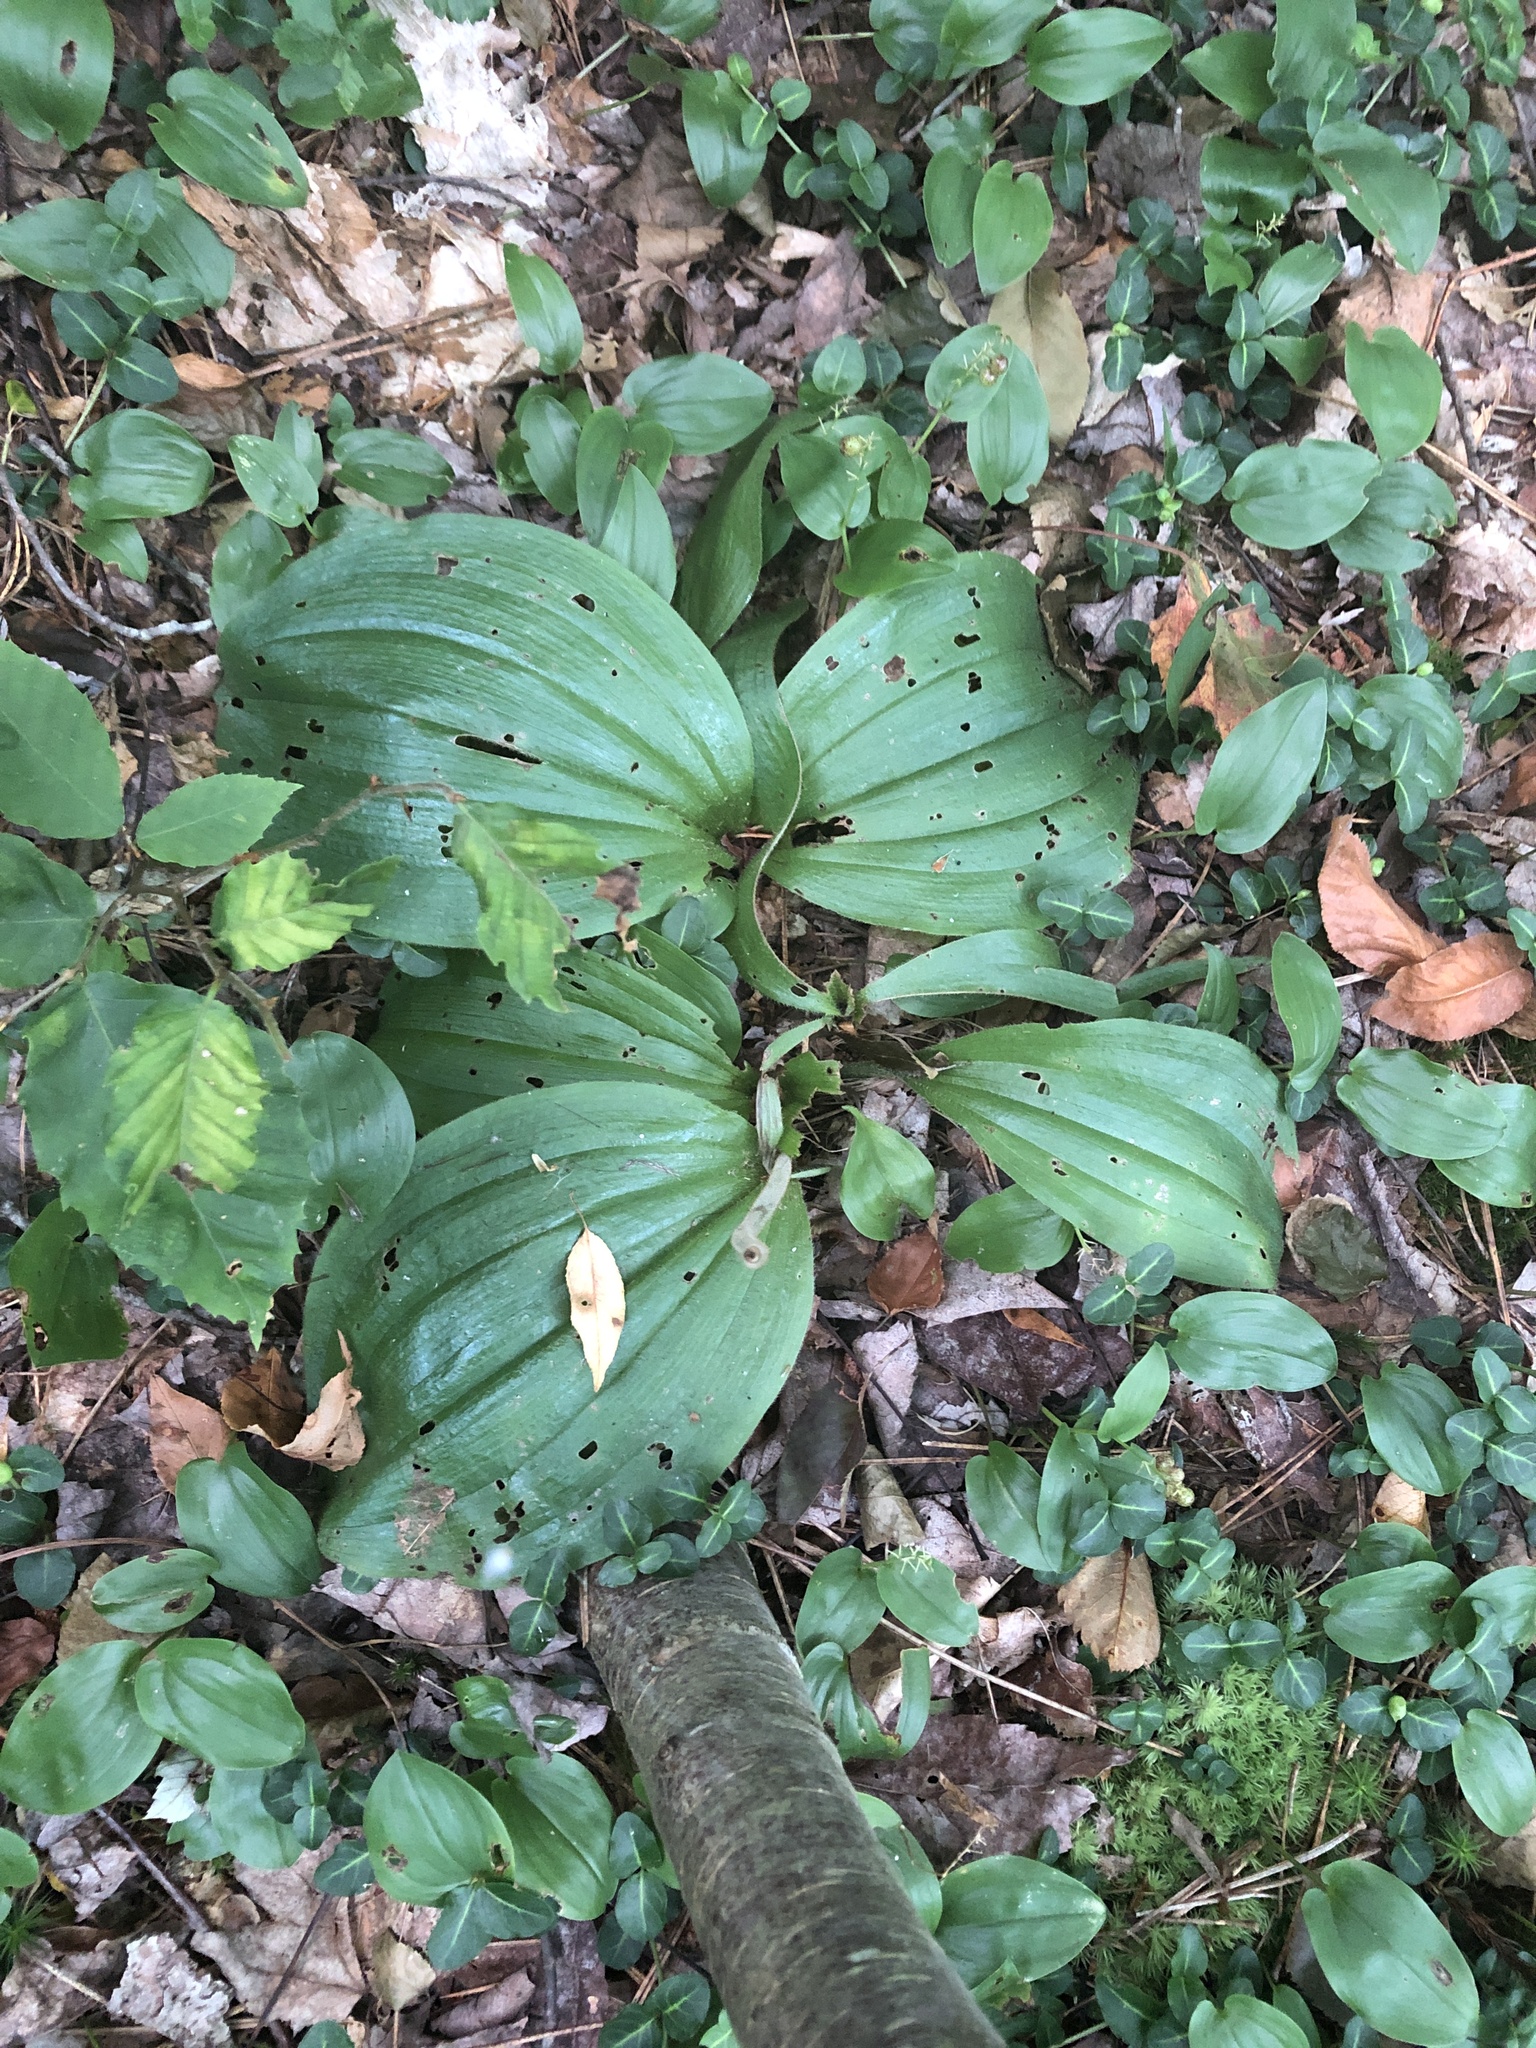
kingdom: Plantae
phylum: Tracheophyta
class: Liliopsida
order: Asparagales
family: Orchidaceae
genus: Cypripedium
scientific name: Cypripedium acaule
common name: Pink lady's-slipper
